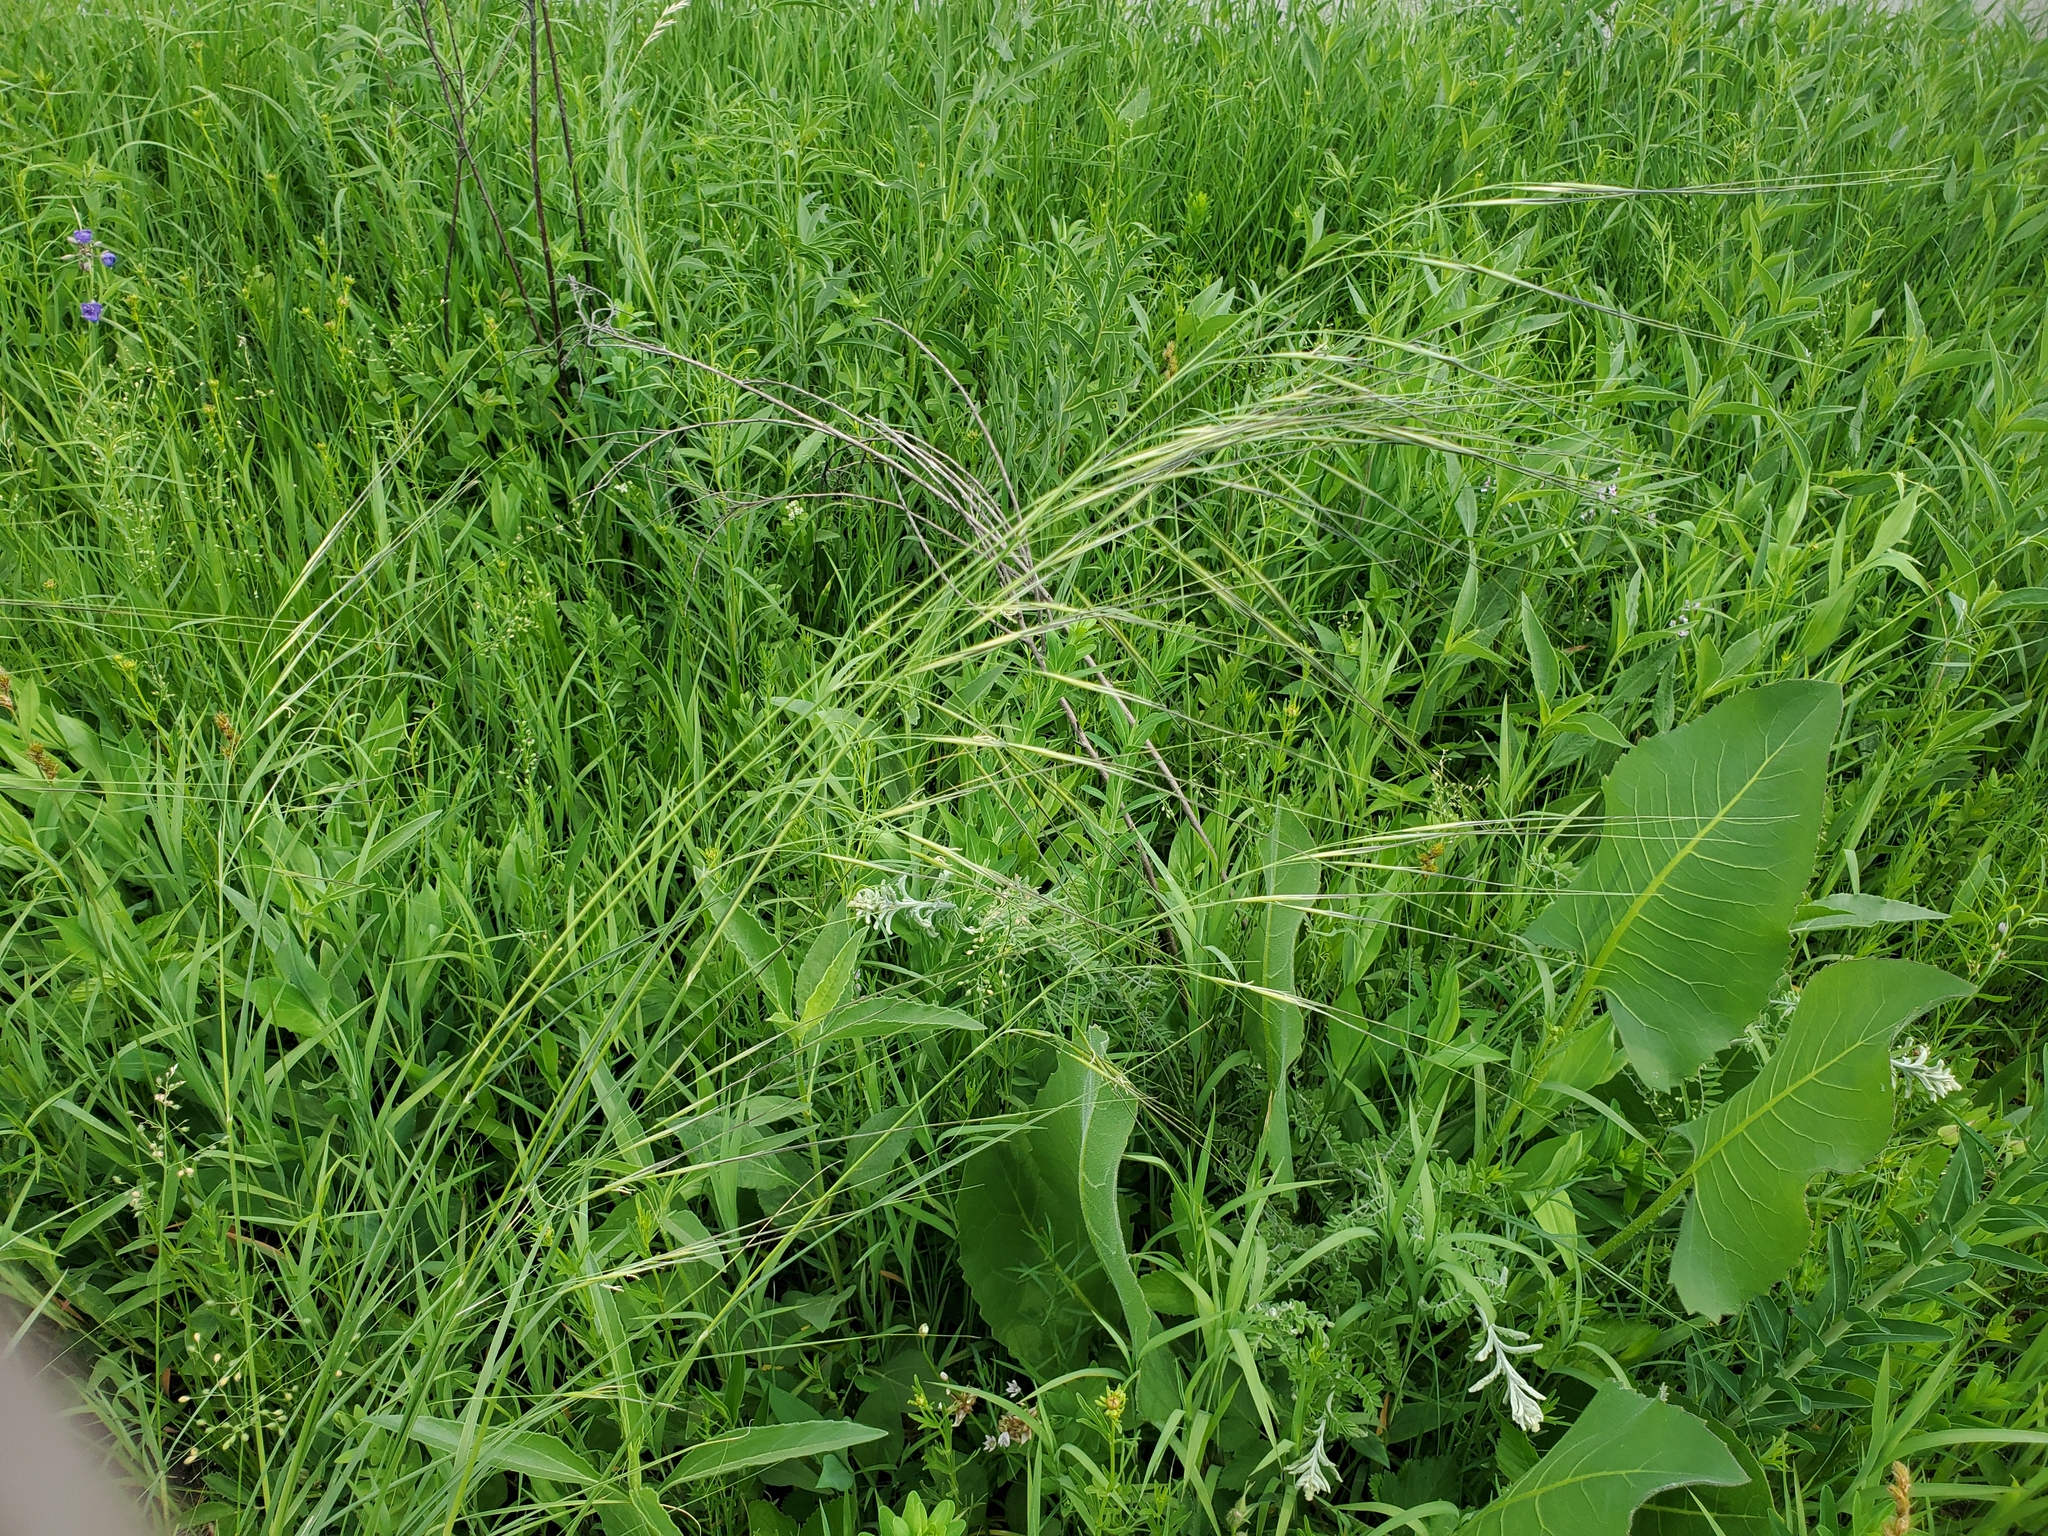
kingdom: Plantae
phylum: Tracheophyta
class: Liliopsida
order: Poales
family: Poaceae
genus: Hesperostipa
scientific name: Hesperostipa spartea
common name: Porcupine grass
